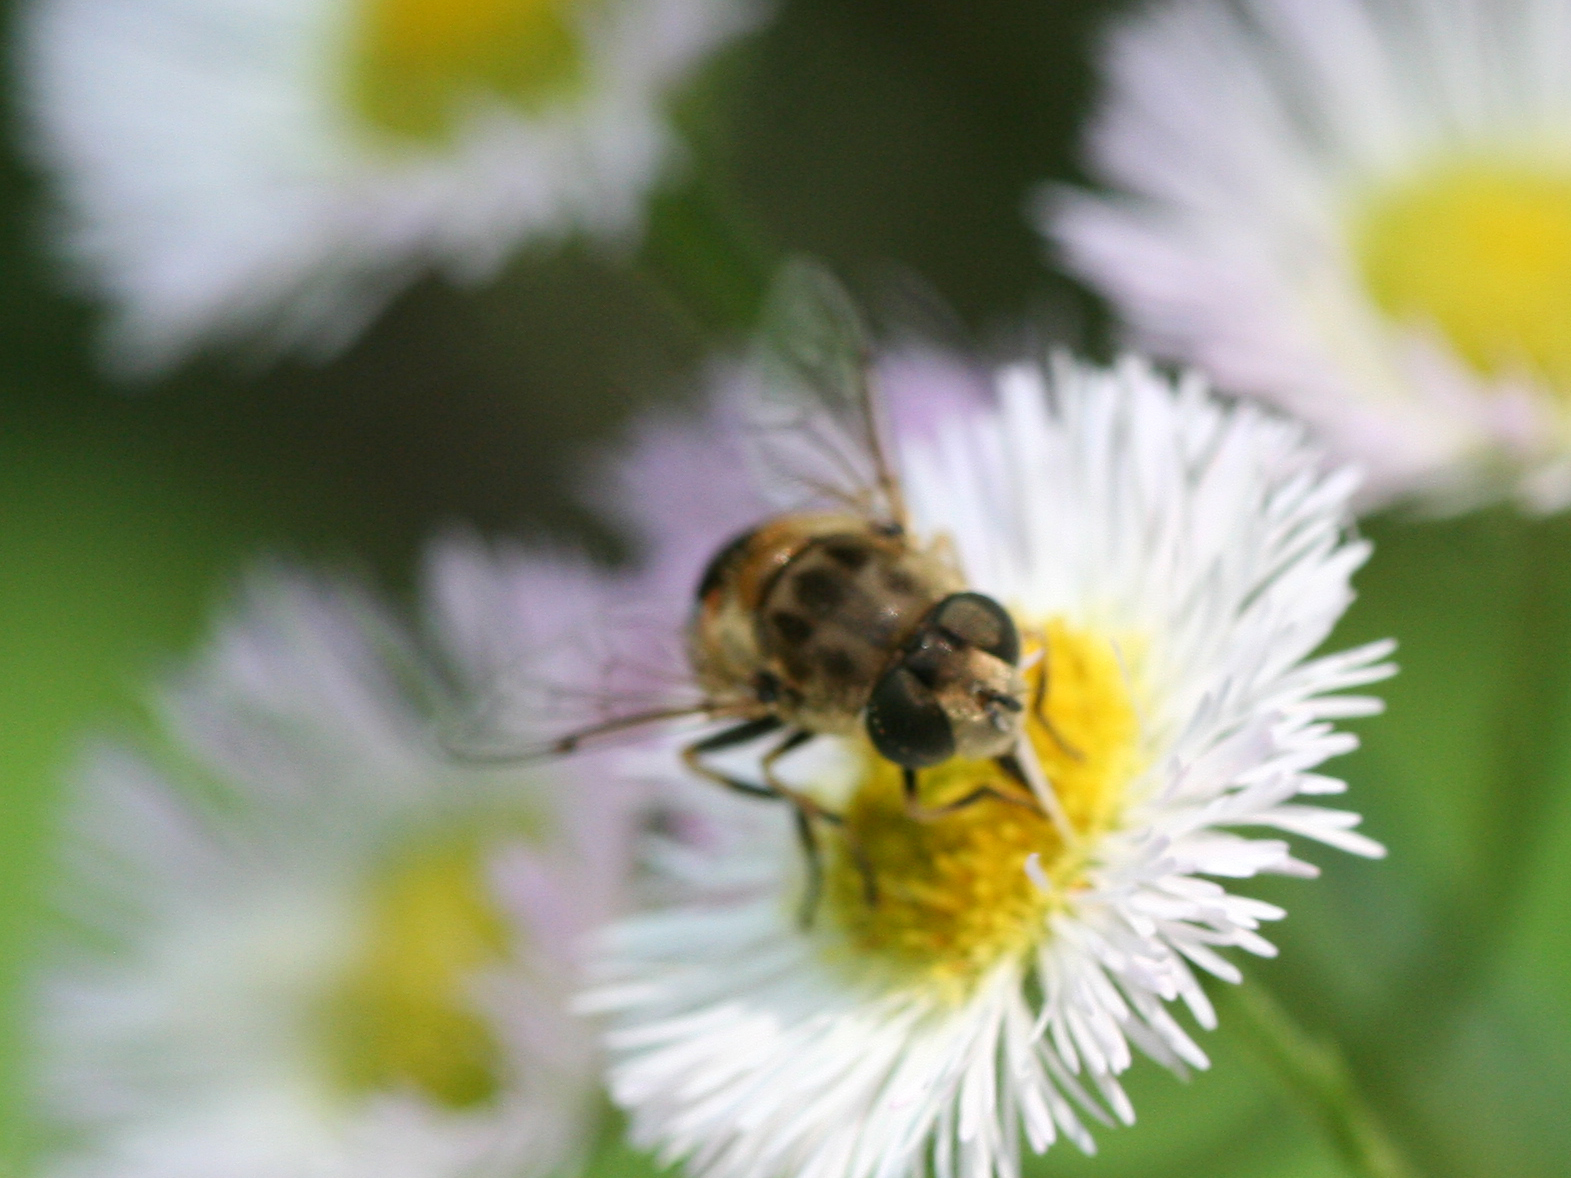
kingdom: Animalia
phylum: Arthropoda
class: Insecta
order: Diptera
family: Syrphidae
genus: Eristalis
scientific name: Eristalis arbustorum
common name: Hover fly
